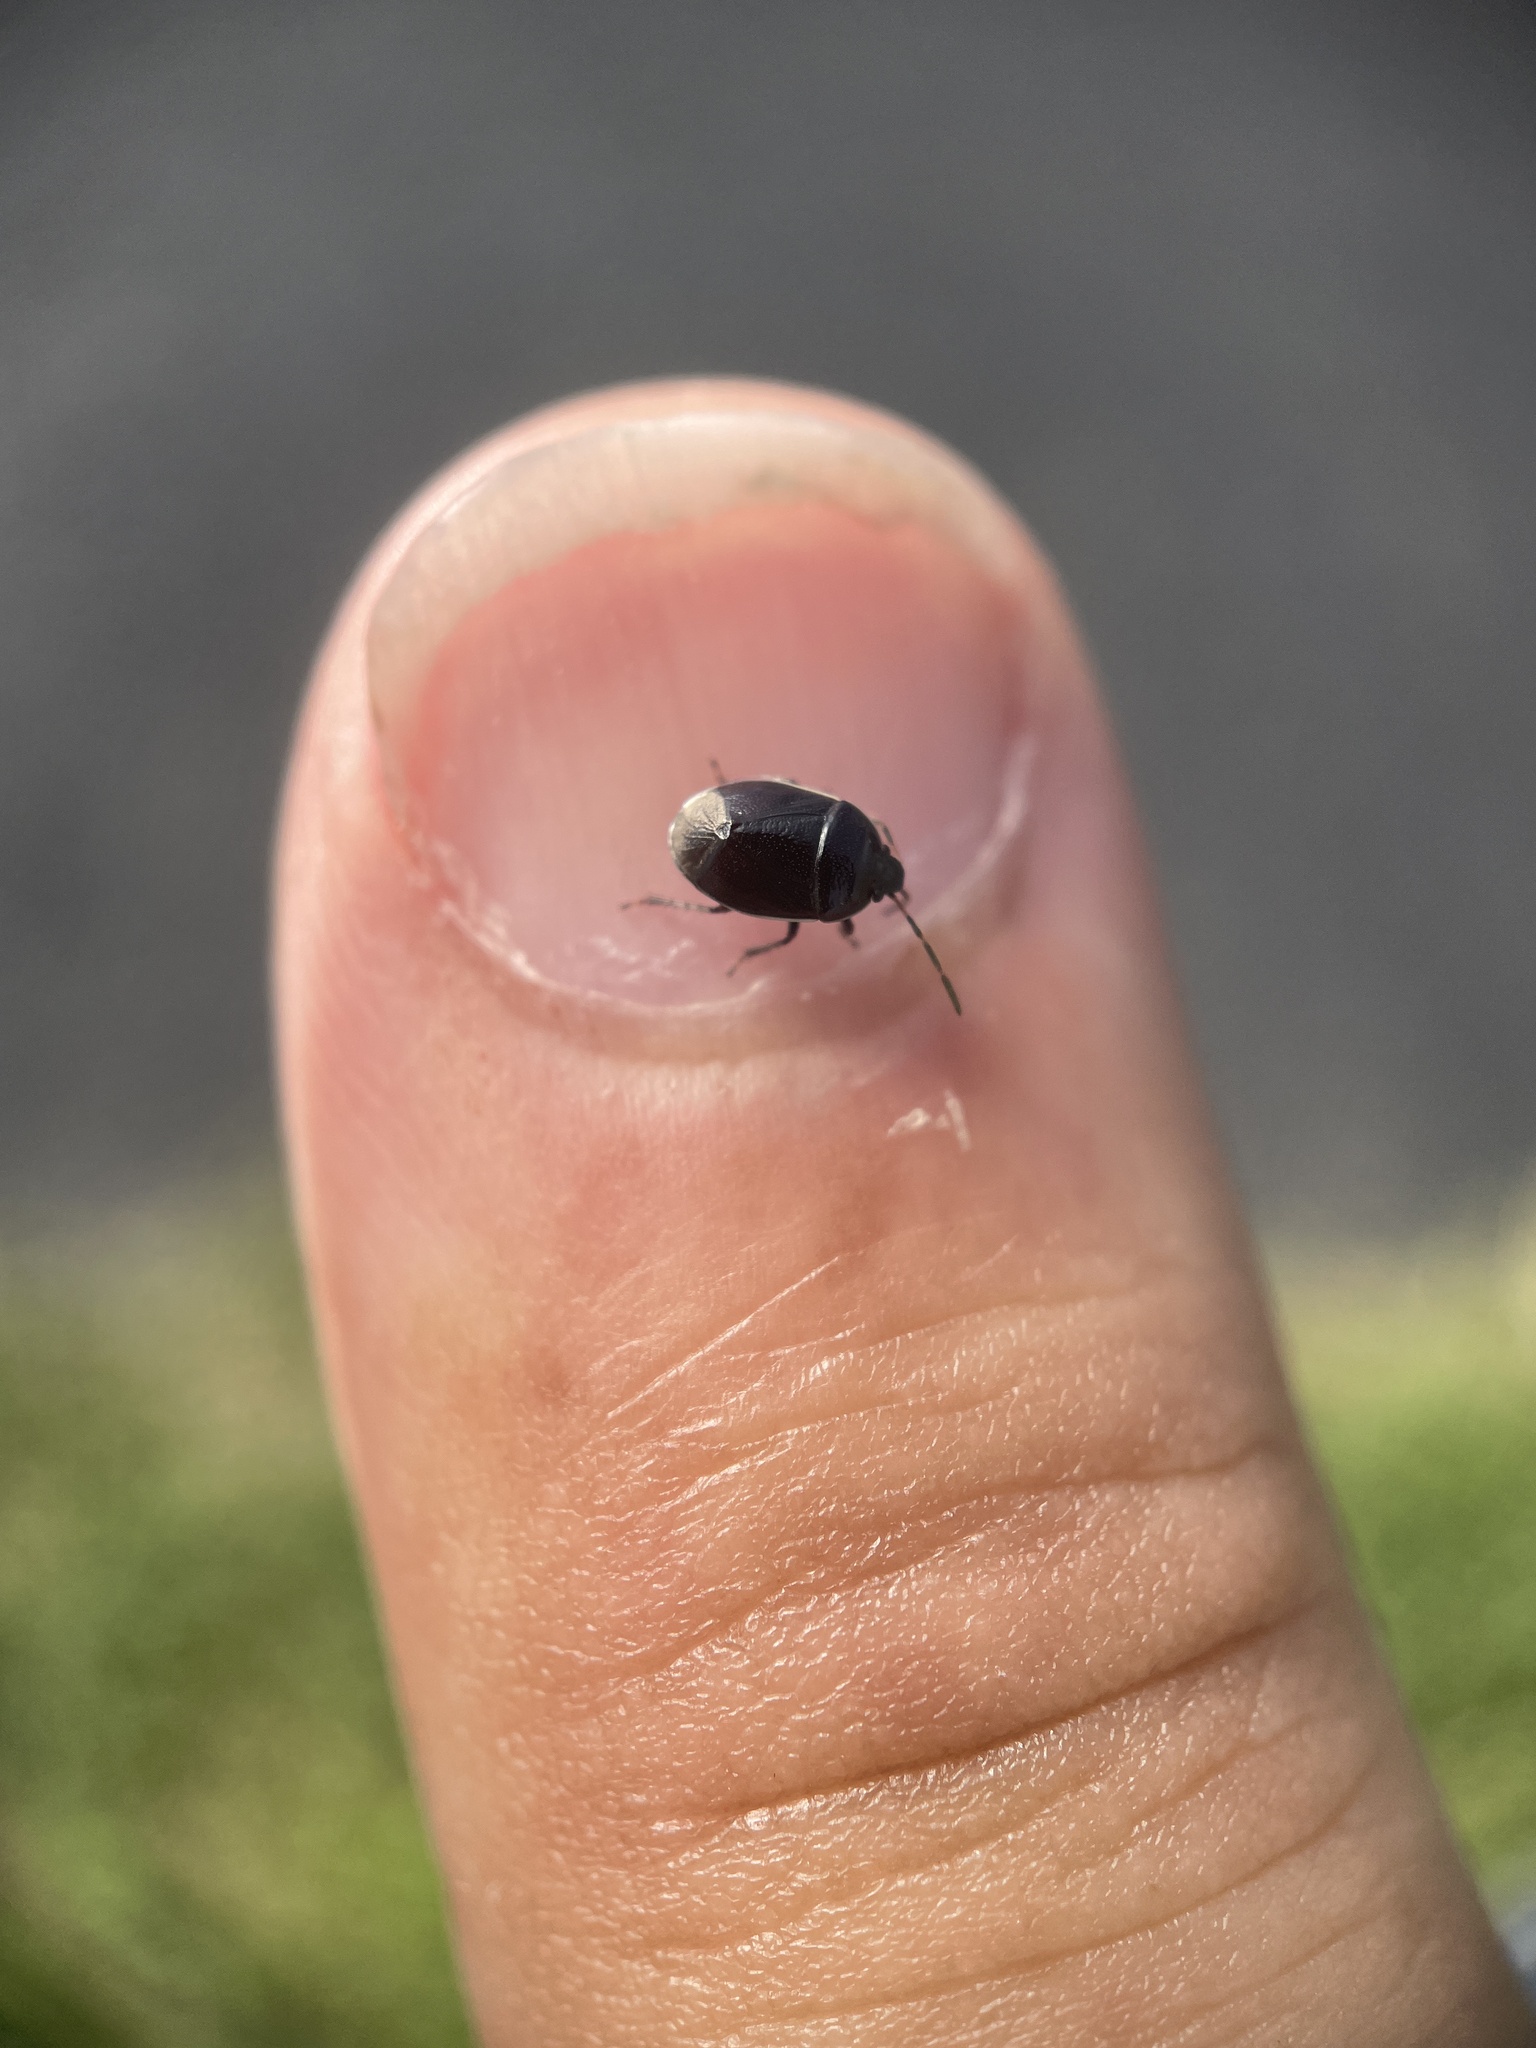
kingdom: Animalia
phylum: Arthropoda
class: Insecta
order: Hemiptera
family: Cydnidae
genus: Sehirus
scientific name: Sehirus cinctus
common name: White-margined burrower bug
